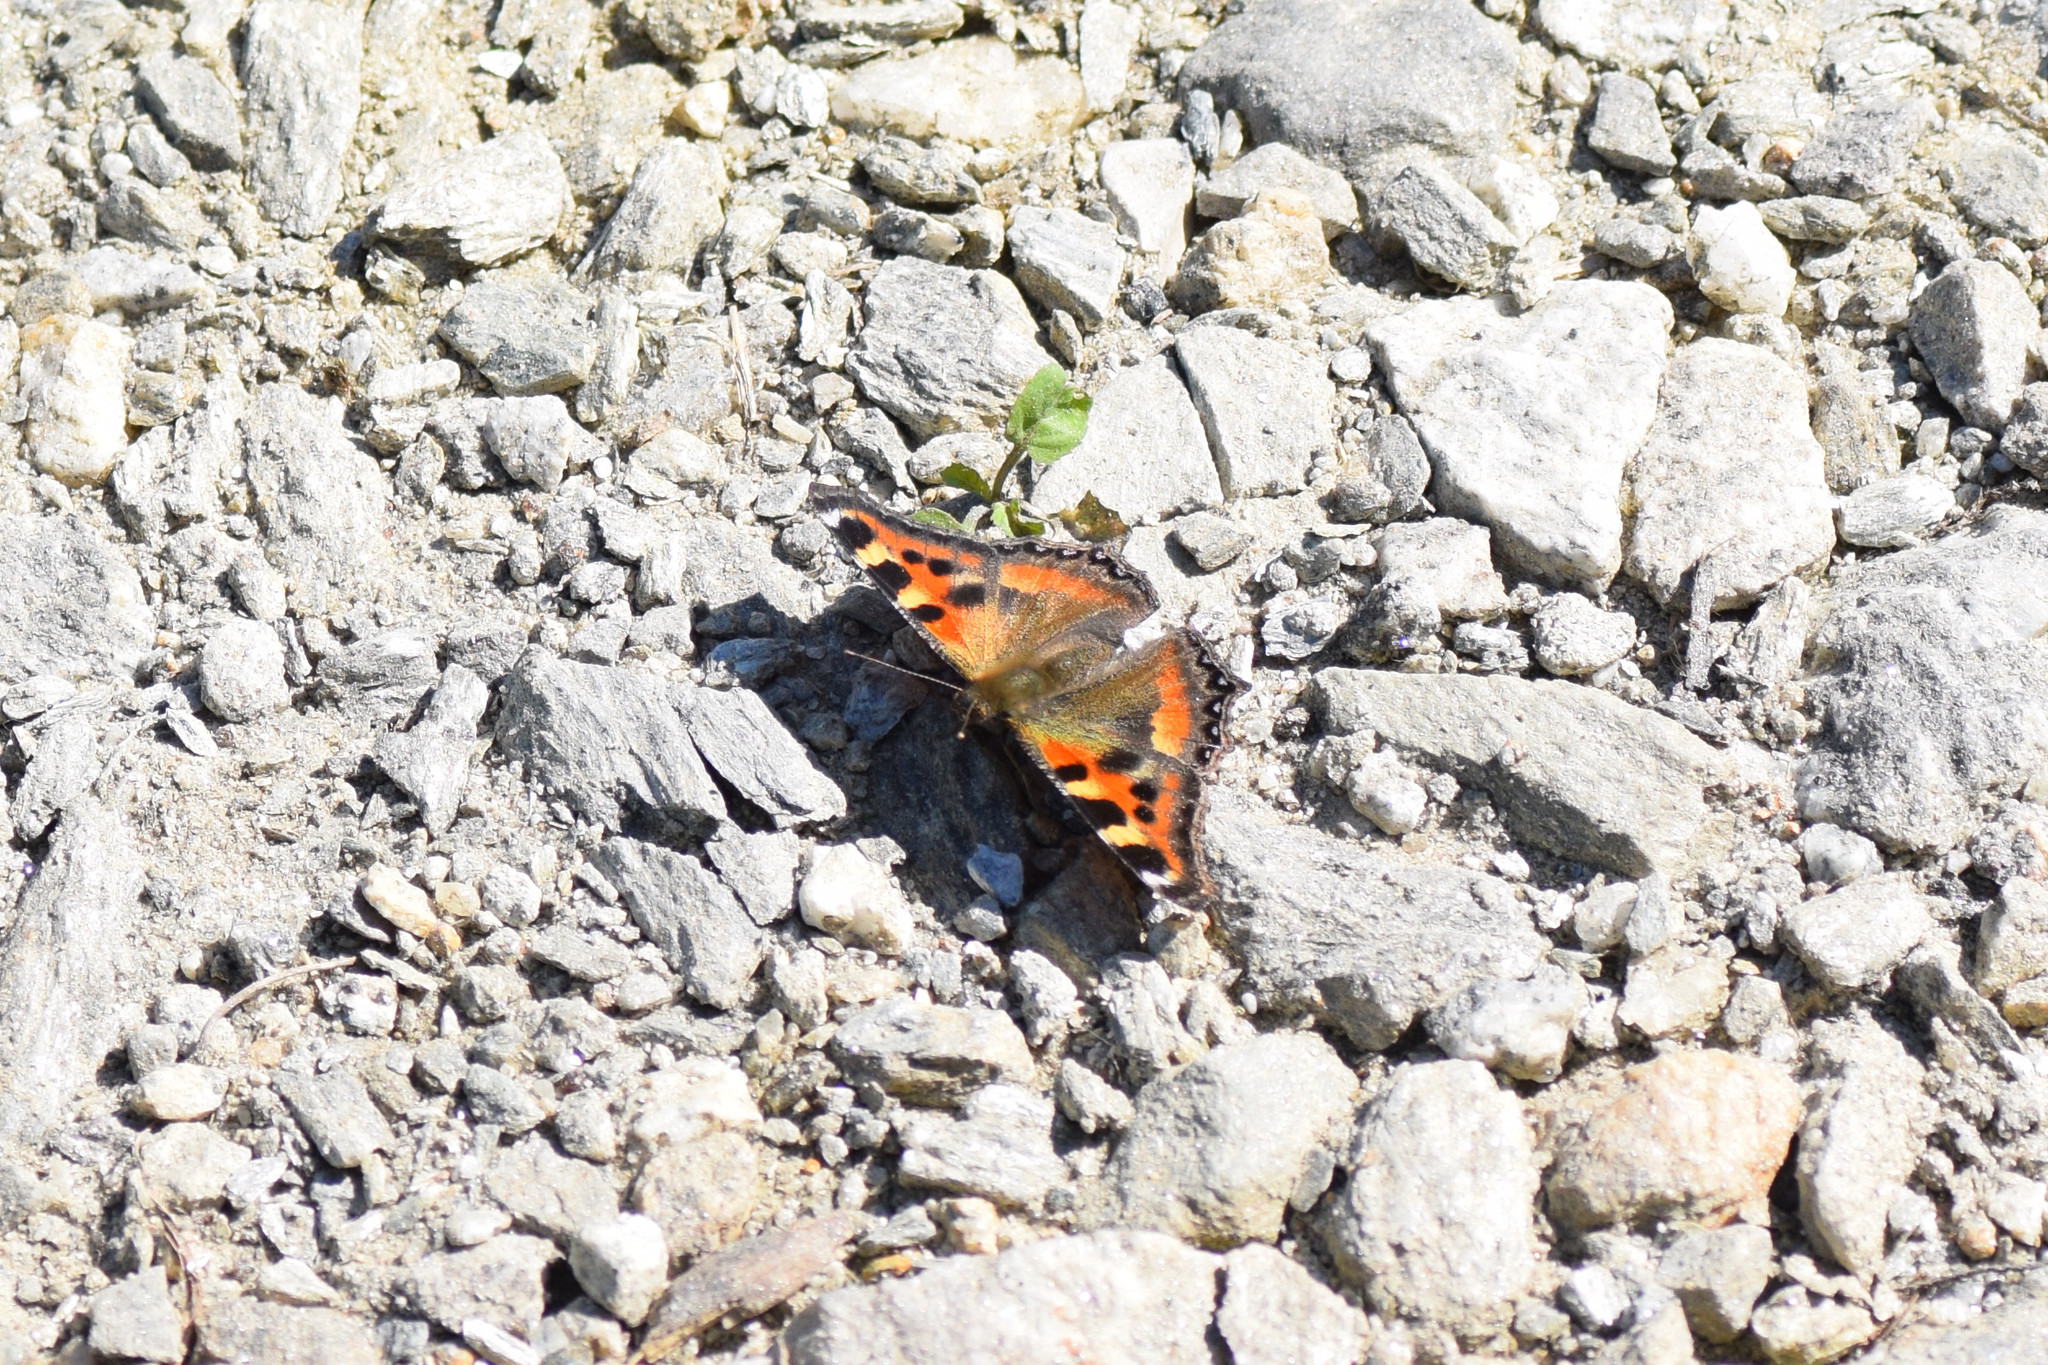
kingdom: Animalia
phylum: Arthropoda
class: Insecta
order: Lepidoptera
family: Nymphalidae
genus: Aglais
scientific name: Aglais caschmirensis
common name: Indian tortoiseshell
